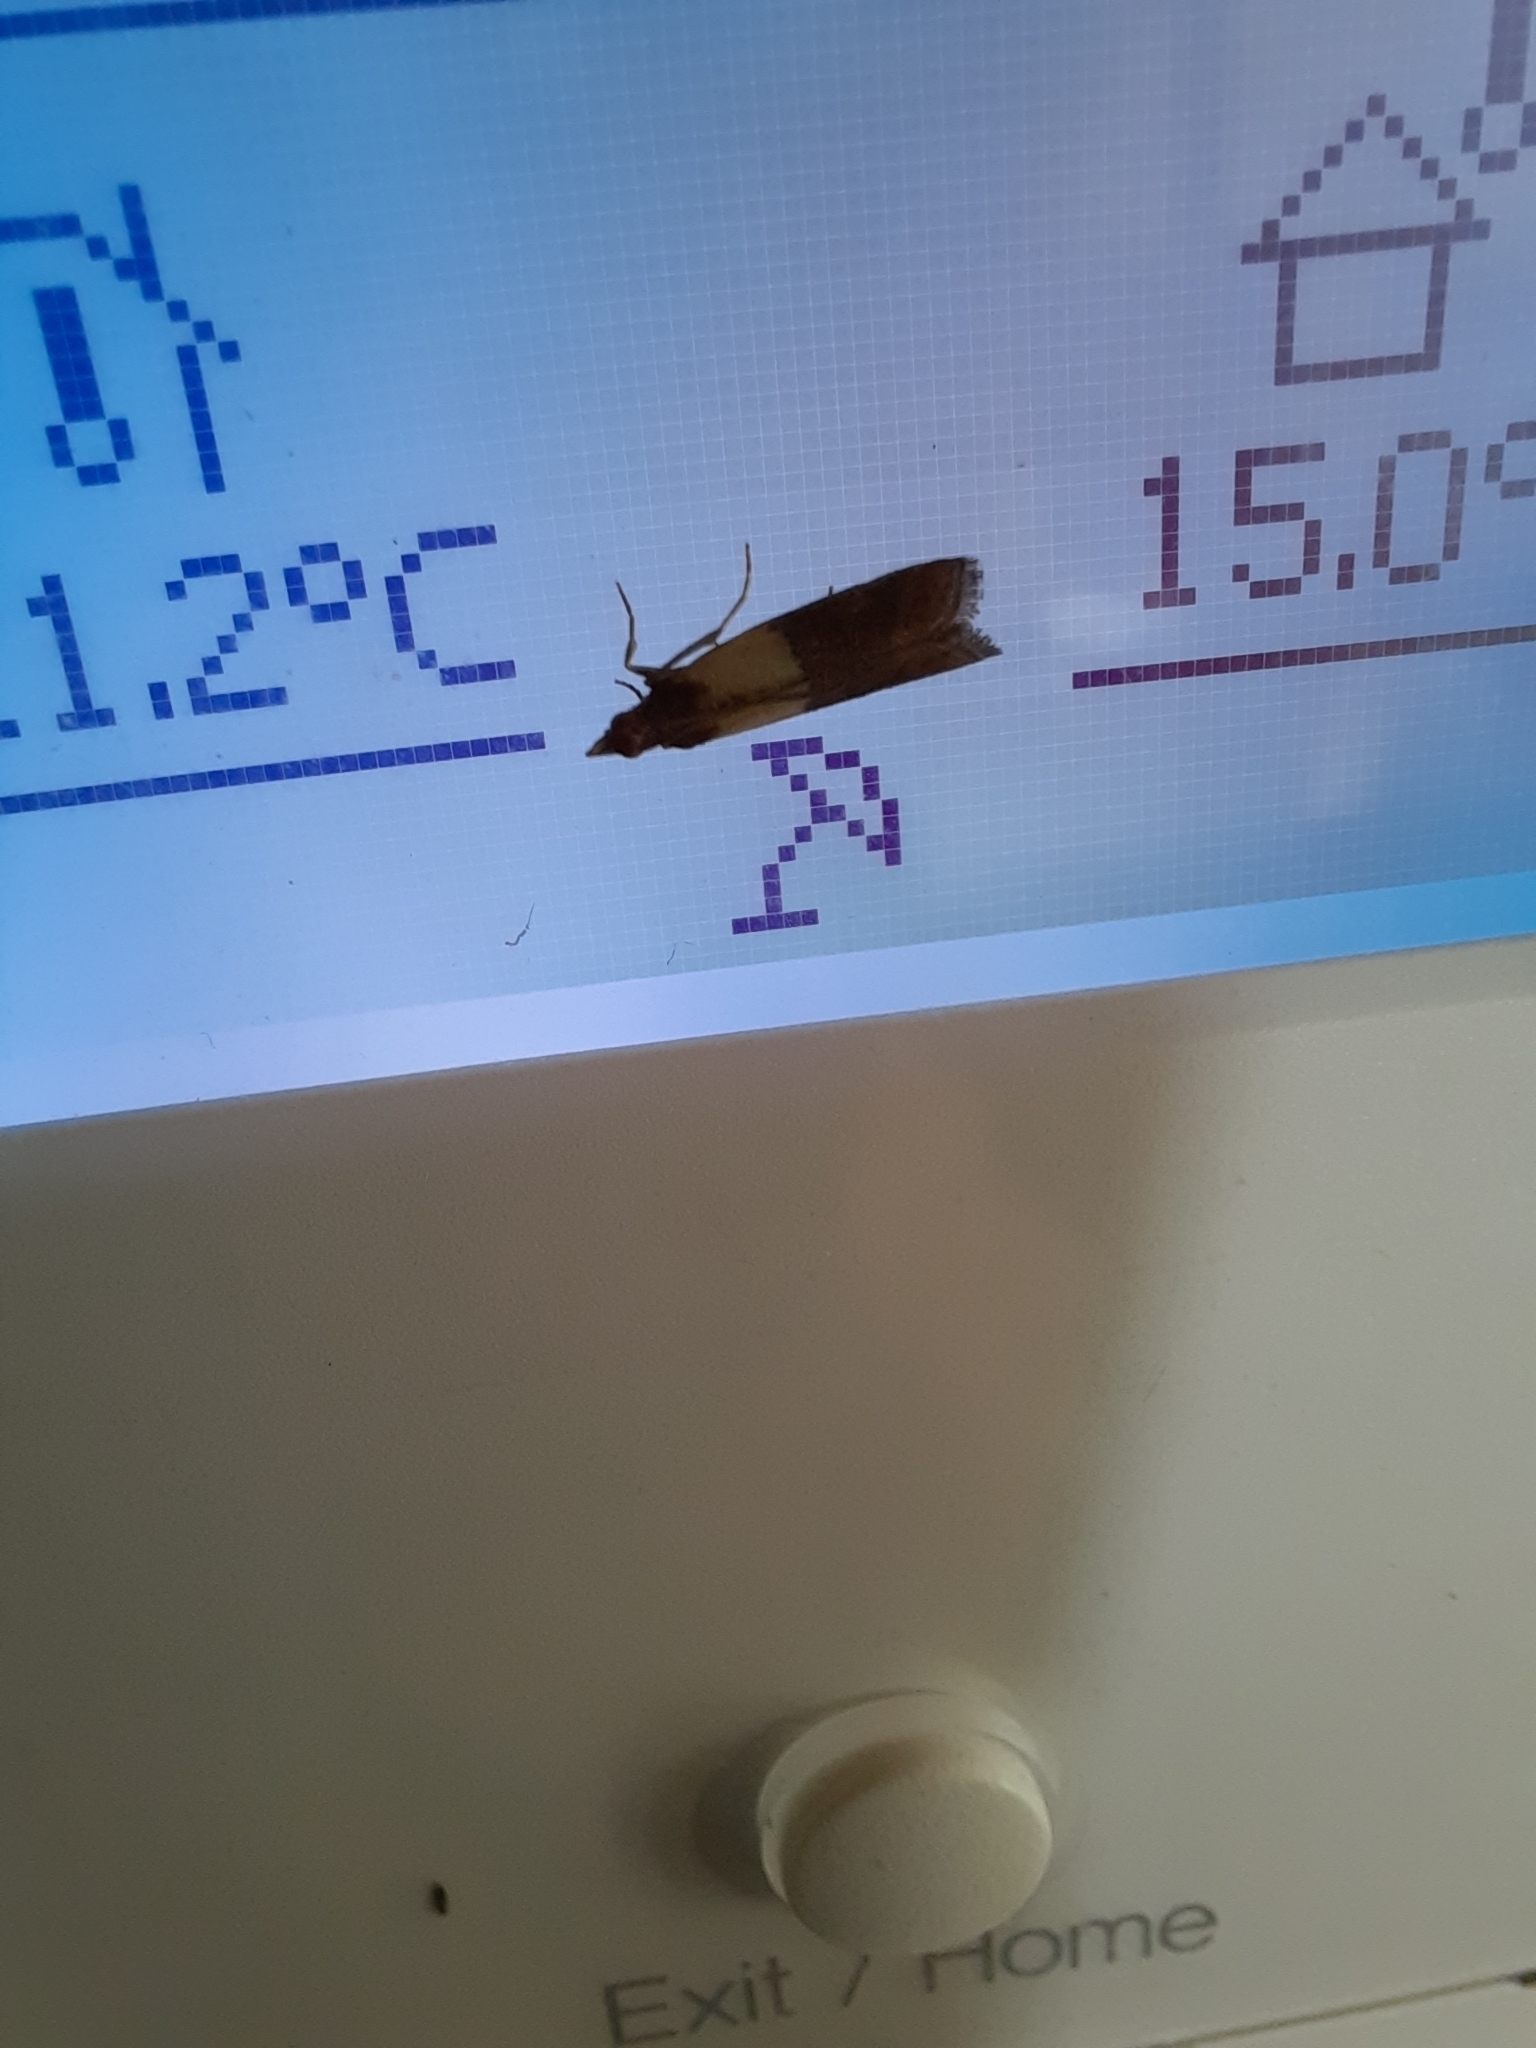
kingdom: Animalia
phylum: Arthropoda
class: Insecta
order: Lepidoptera
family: Pyralidae
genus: Plodia
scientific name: Plodia interpunctella
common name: Indian meal moth
